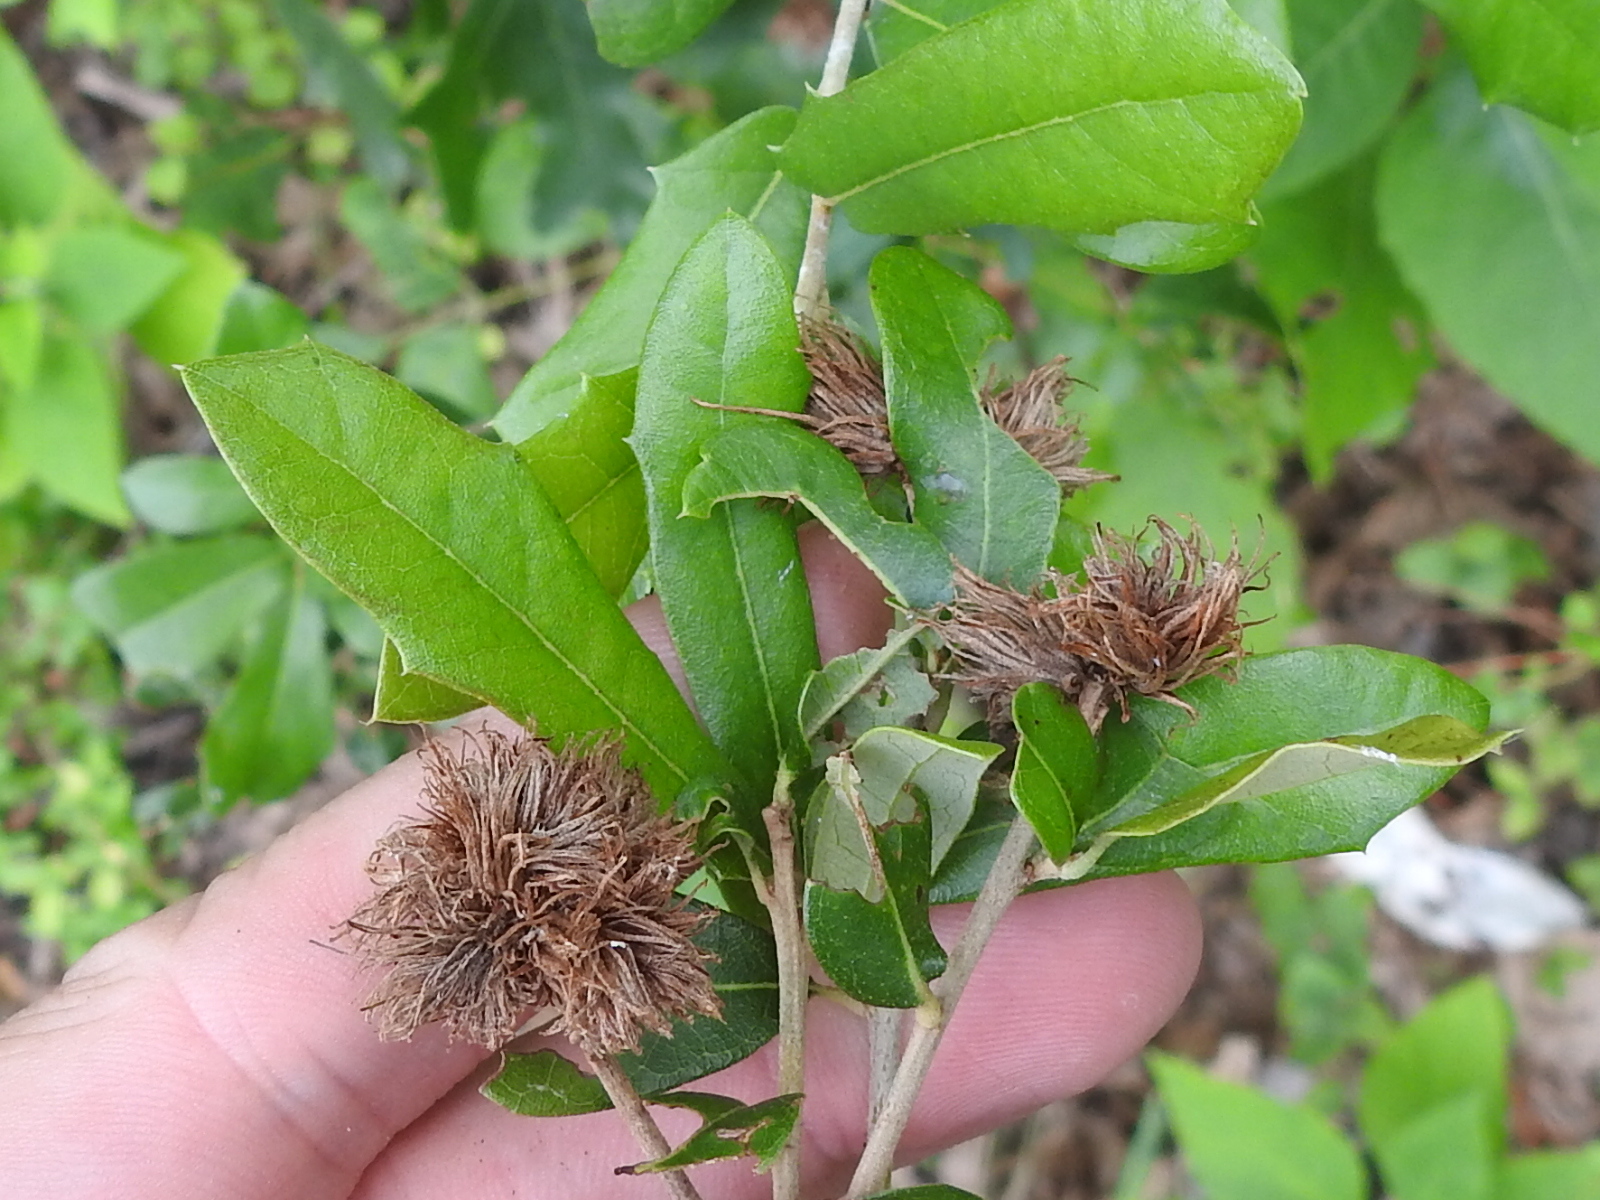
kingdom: Animalia
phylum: Arthropoda
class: Insecta
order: Hymenoptera
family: Cynipidae
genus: Andricus
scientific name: Andricus quercusfoliatus
